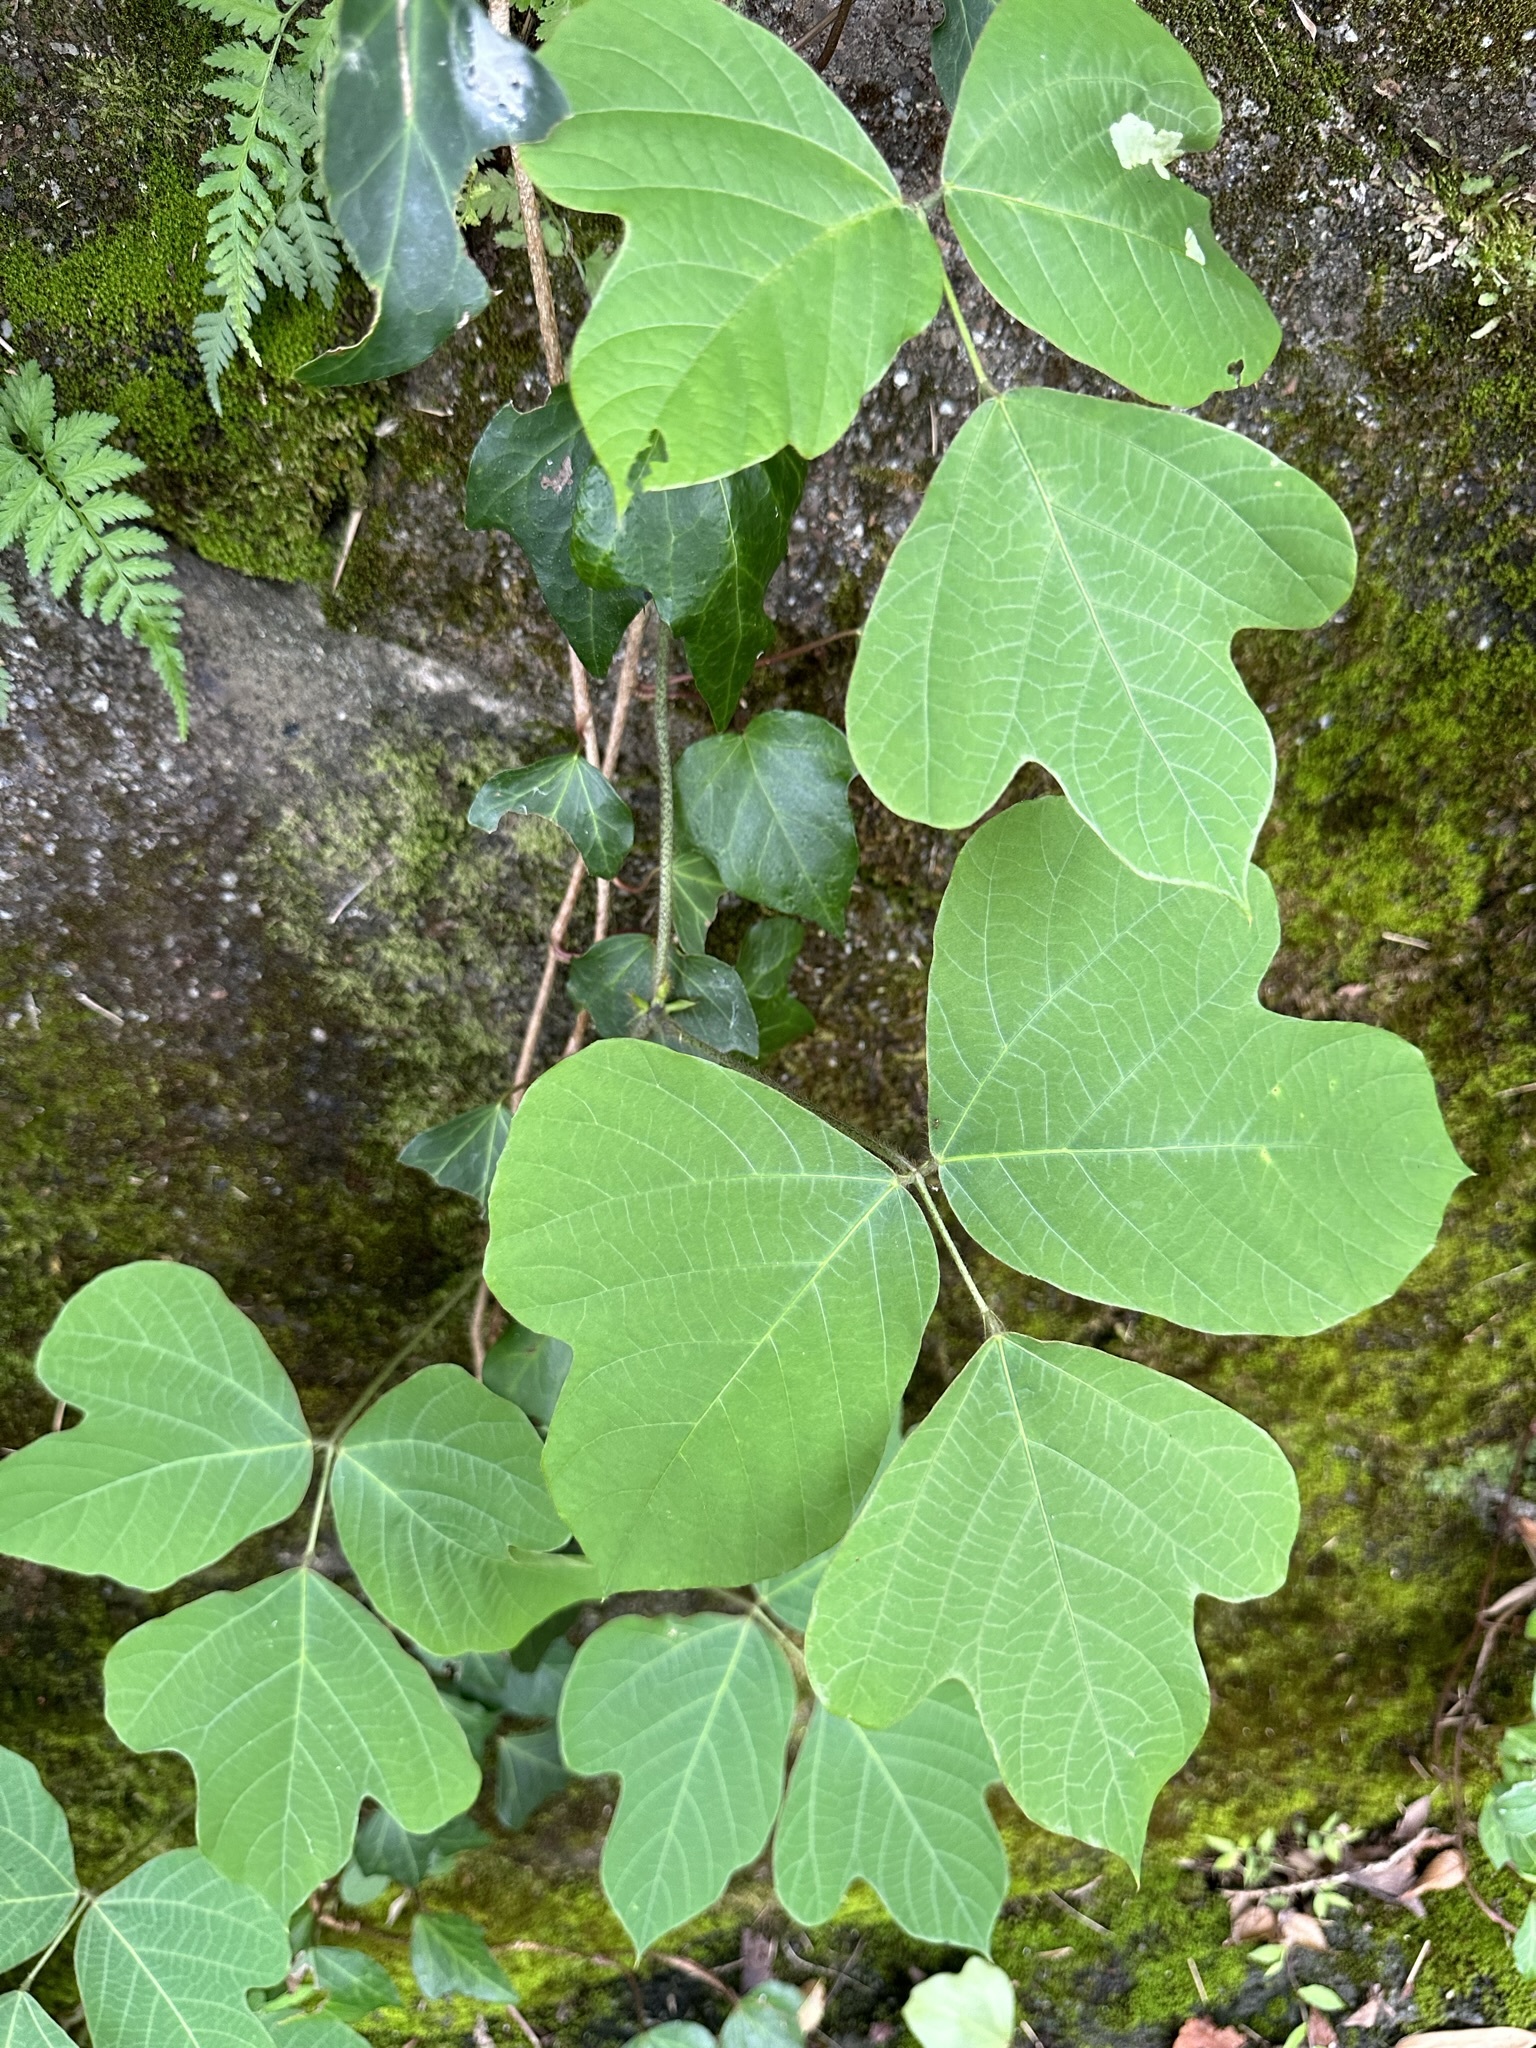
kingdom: Plantae
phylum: Tracheophyta
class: Magnoliopsida
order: Fabales
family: Fabaceae
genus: Pueraria
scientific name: Pueraria montana
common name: Kudzu
